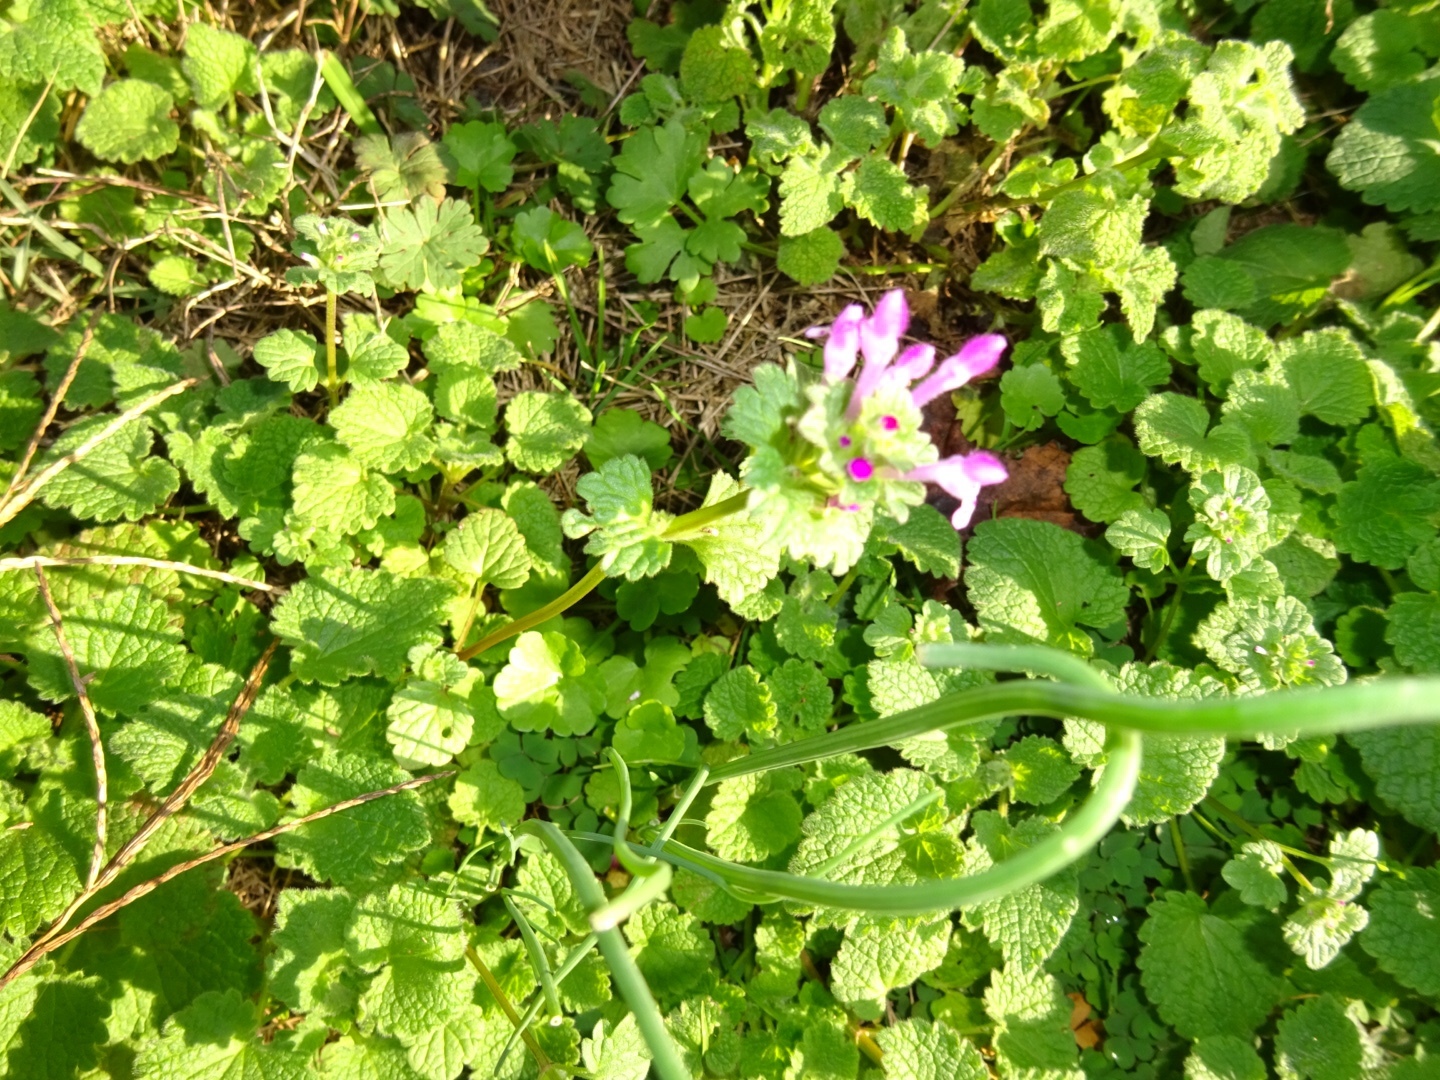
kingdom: Plantae
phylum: Tracheophyta
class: Magnoliopsida
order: Lamiales
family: Lamiaceae
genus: Lamium
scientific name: Lamium amplexicaule
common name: Henbit dead-nettle
